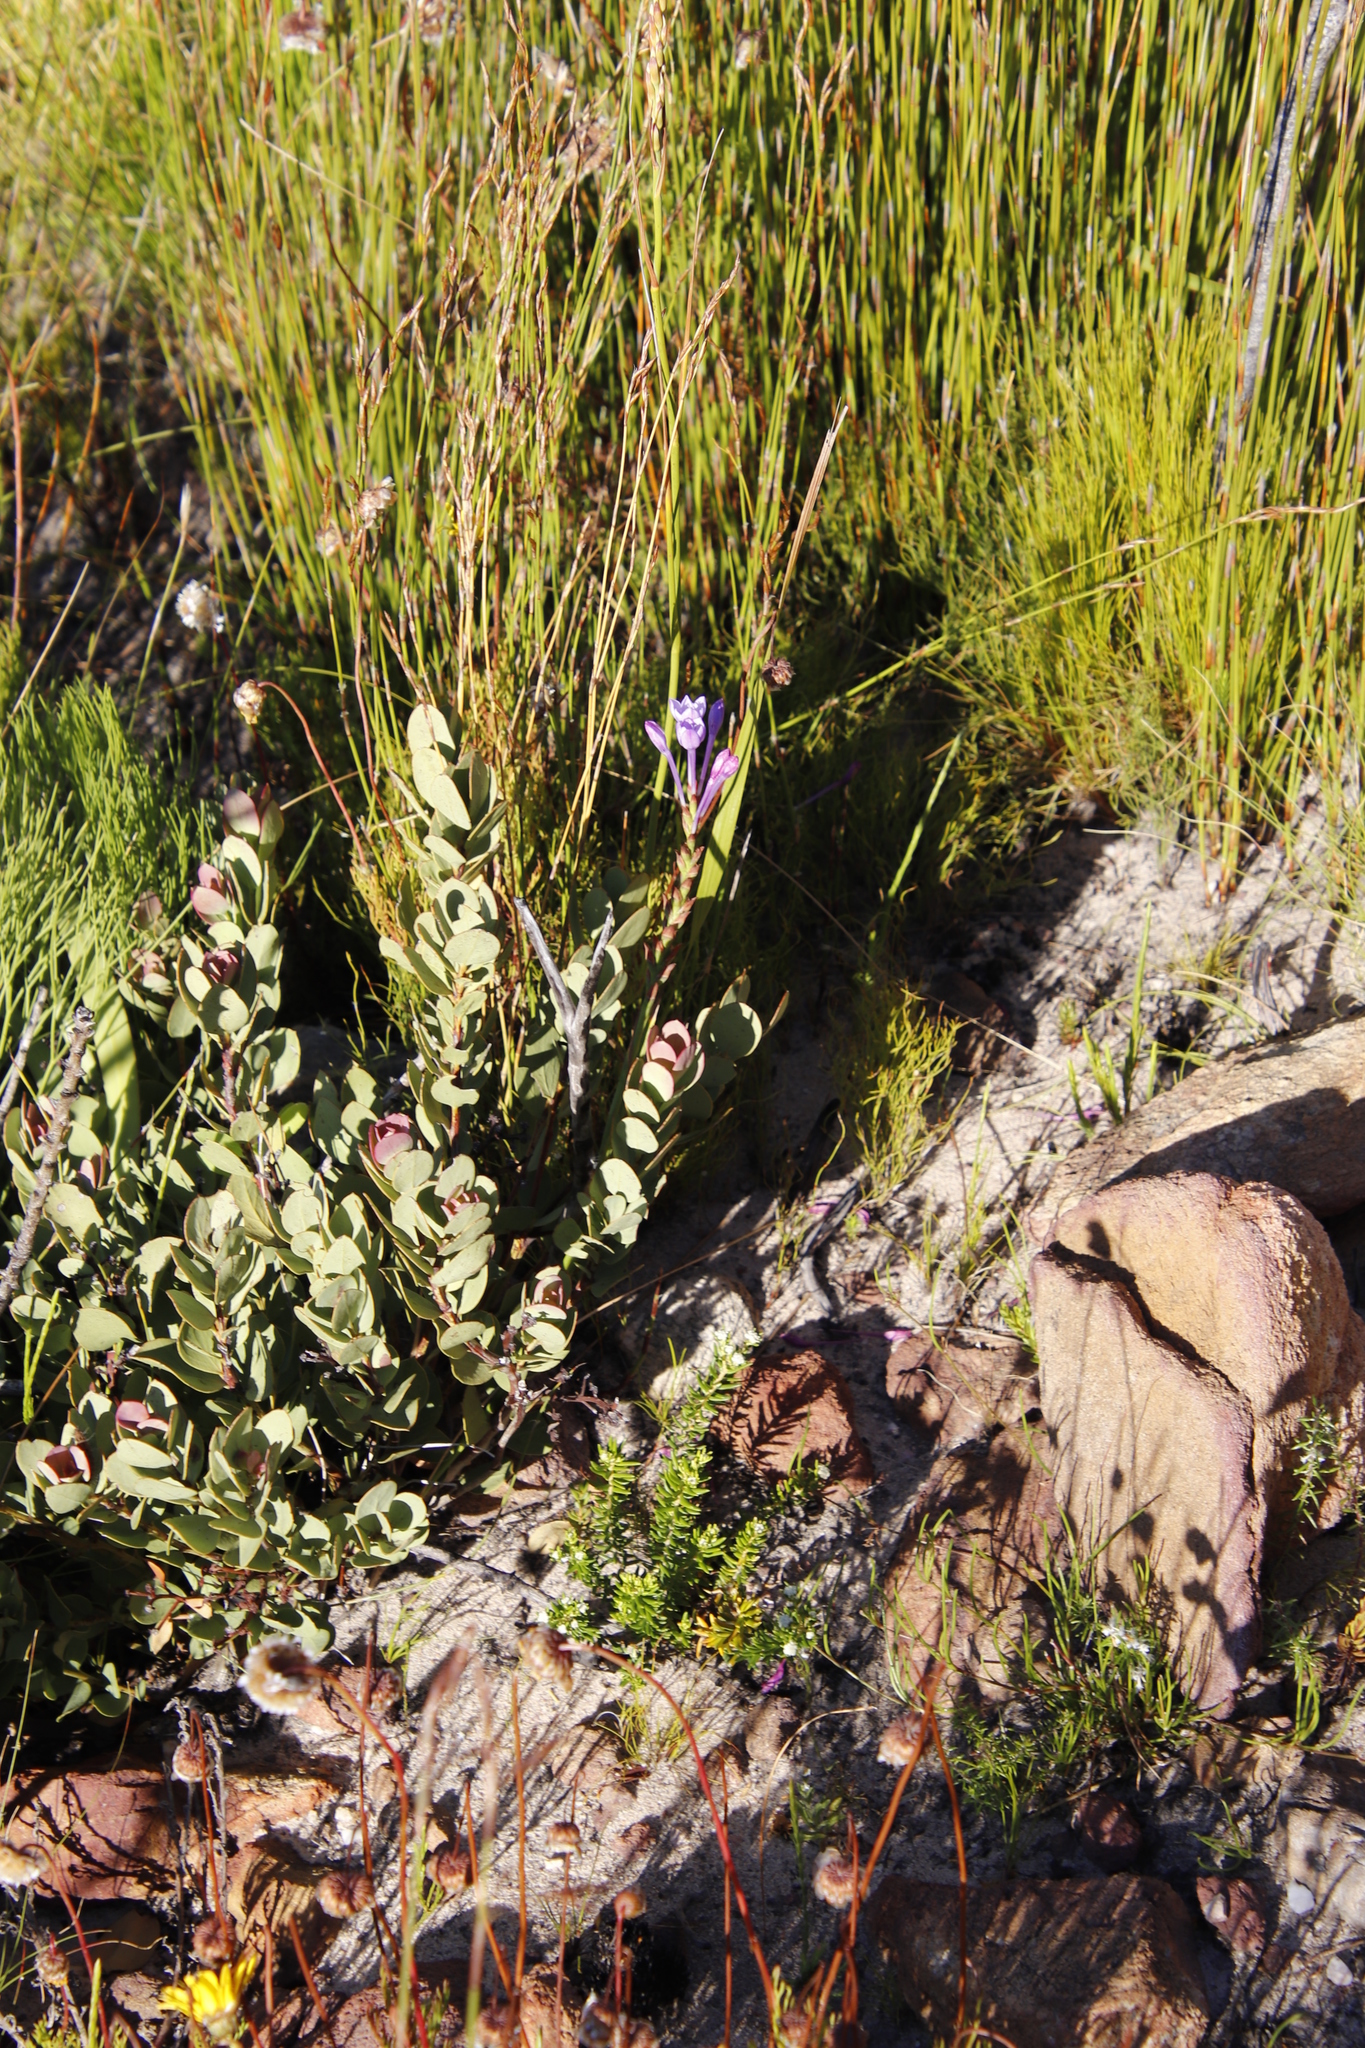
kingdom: Plantae
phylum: Tracheophyta
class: Magnoliopsida
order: Santalales
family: Santalaceae
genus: Osyris
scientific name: Osyris speciosa
